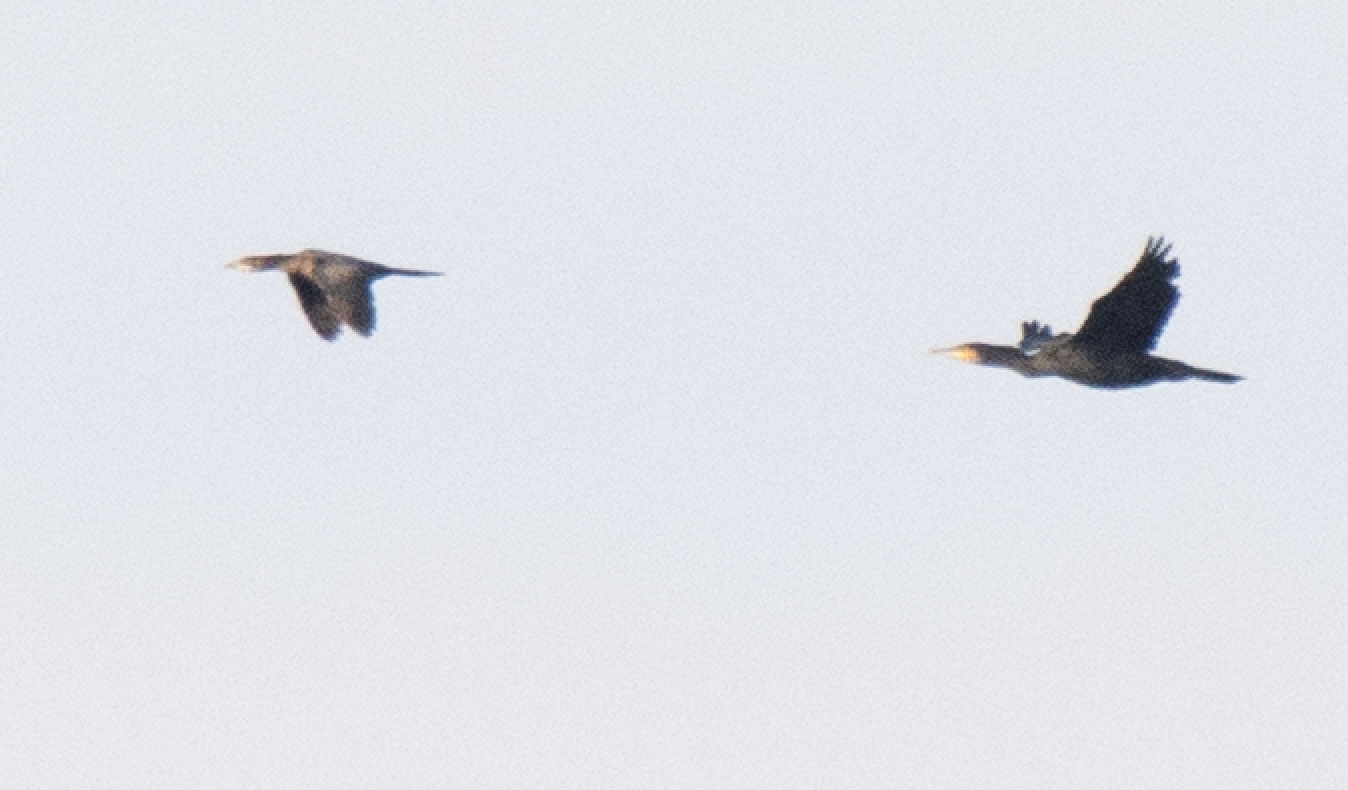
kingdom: Animalia
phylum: Chordata
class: Aves
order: Suliformes
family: Phalacrocoracidae
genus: Microcarbo
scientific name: Microcarbo pygmaeus
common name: Pygmy cormorant
